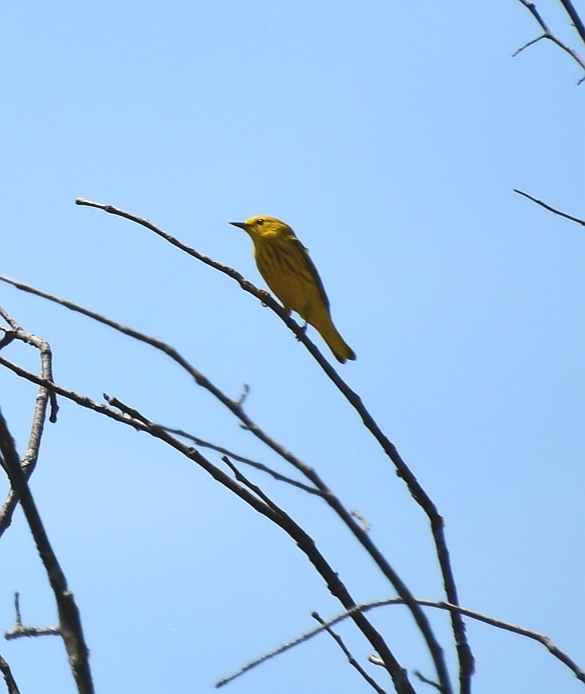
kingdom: Animalia
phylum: Chordata
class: Aves
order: Passeriformes
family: Parulidae
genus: Setophaga
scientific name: Setophaga petechia
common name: Yellow warbler
